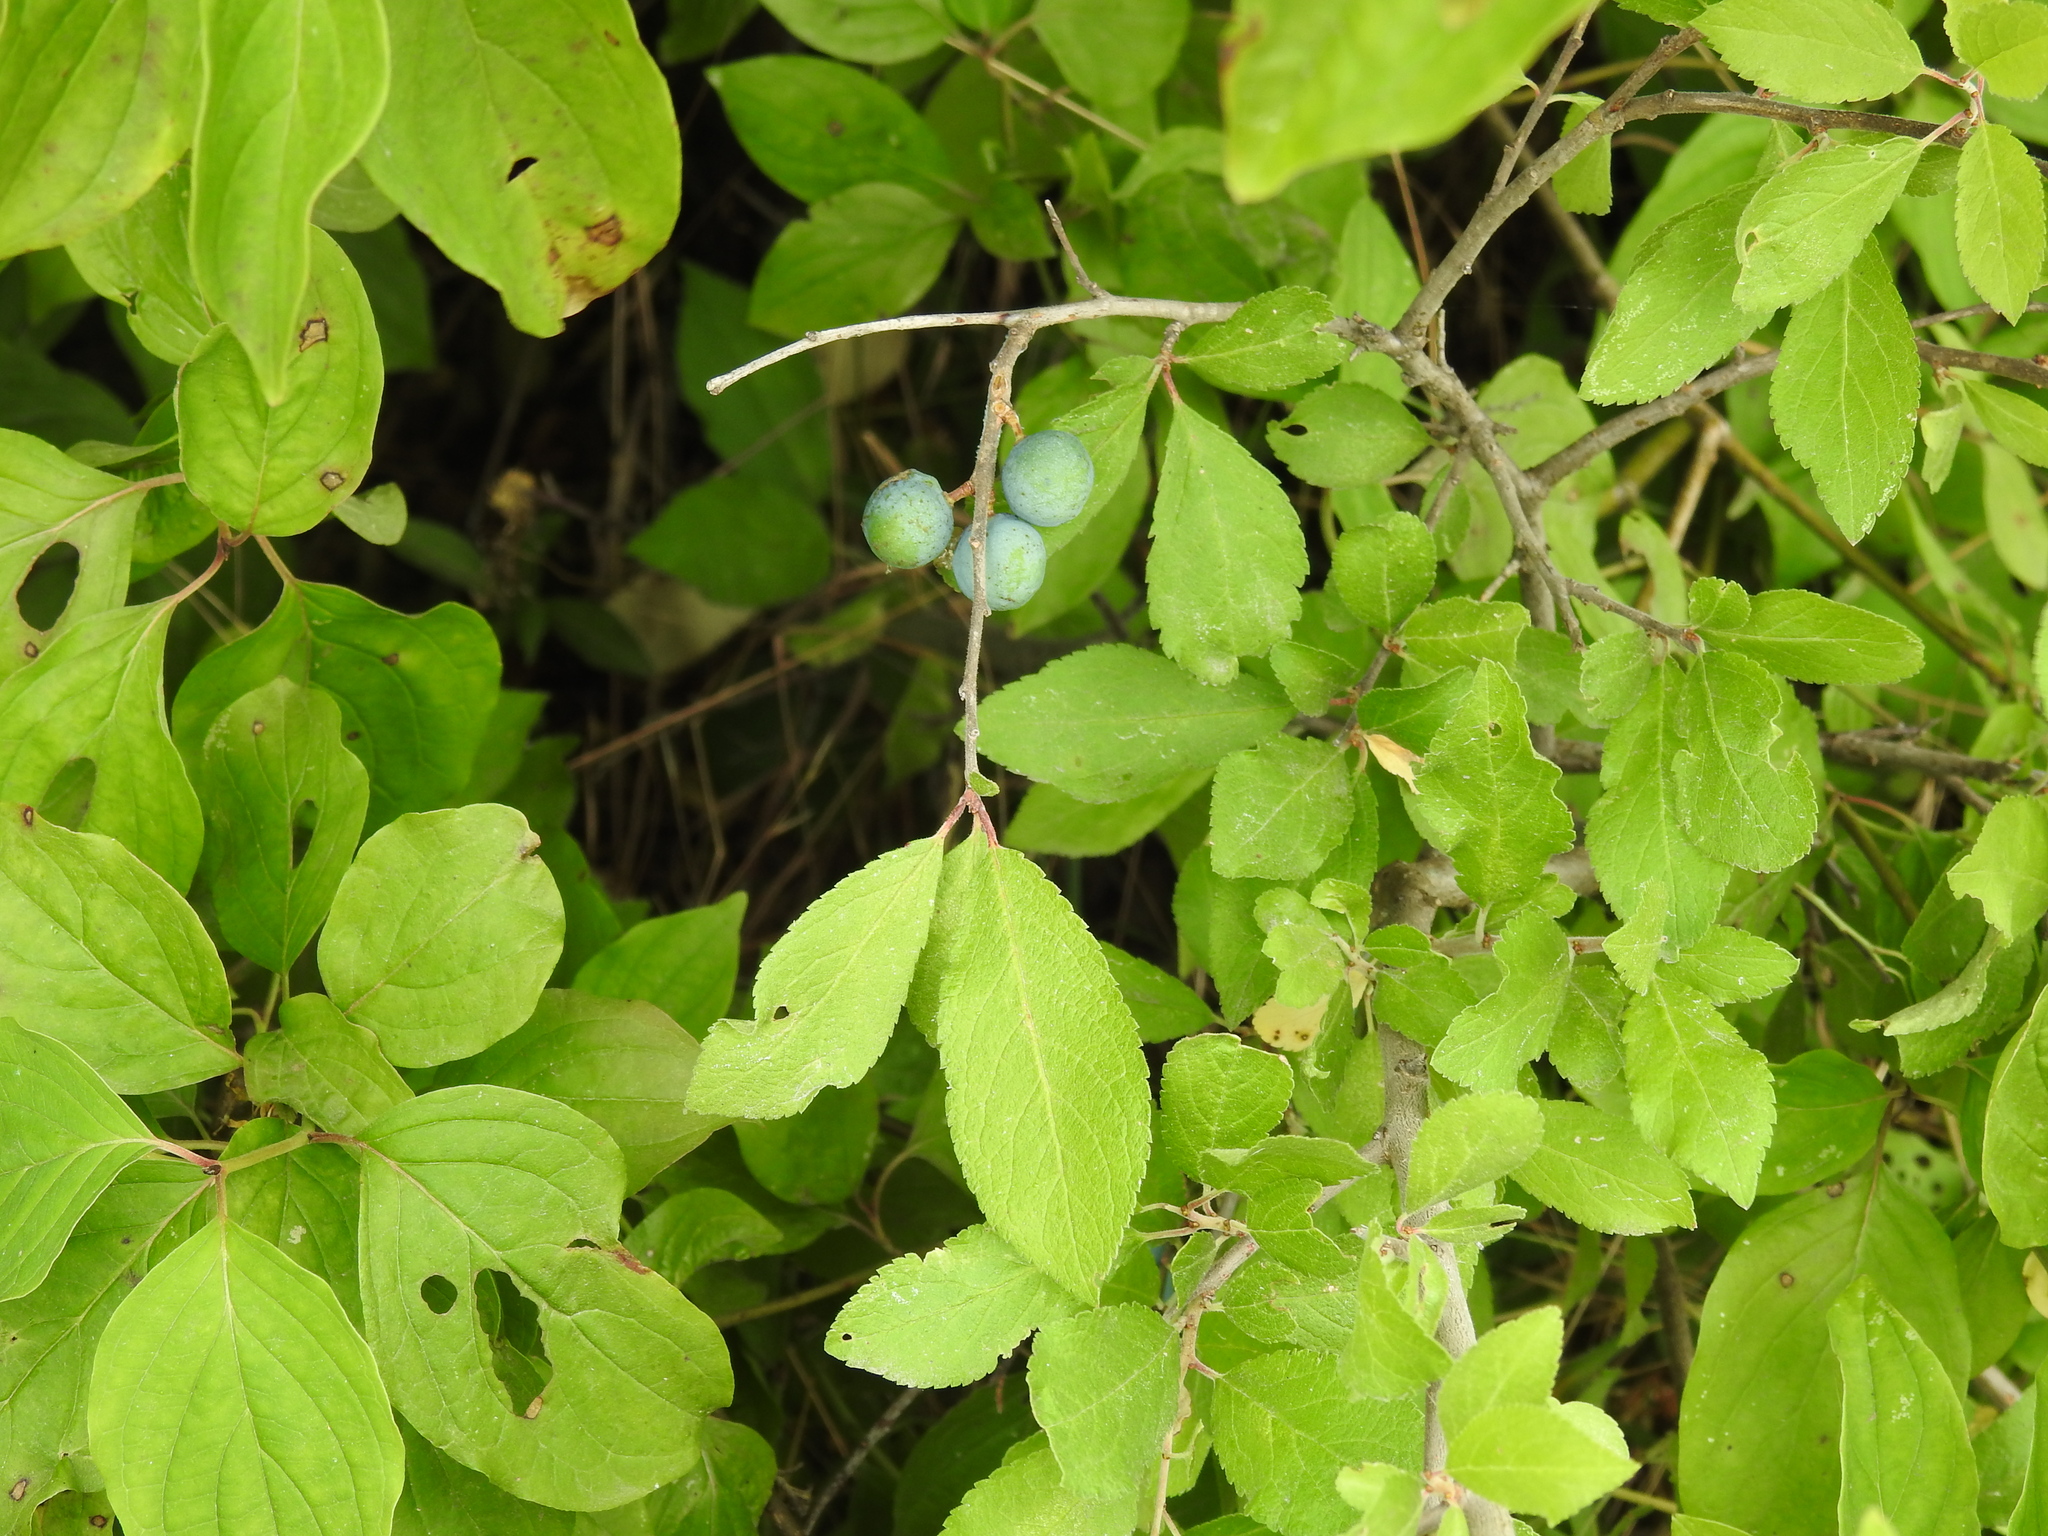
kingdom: Plantae
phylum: Tracheophyta
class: Magnoliopsida
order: Rosales
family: Rosaceae
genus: Prunus
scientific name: Prunus spinosa
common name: Blackthorn
